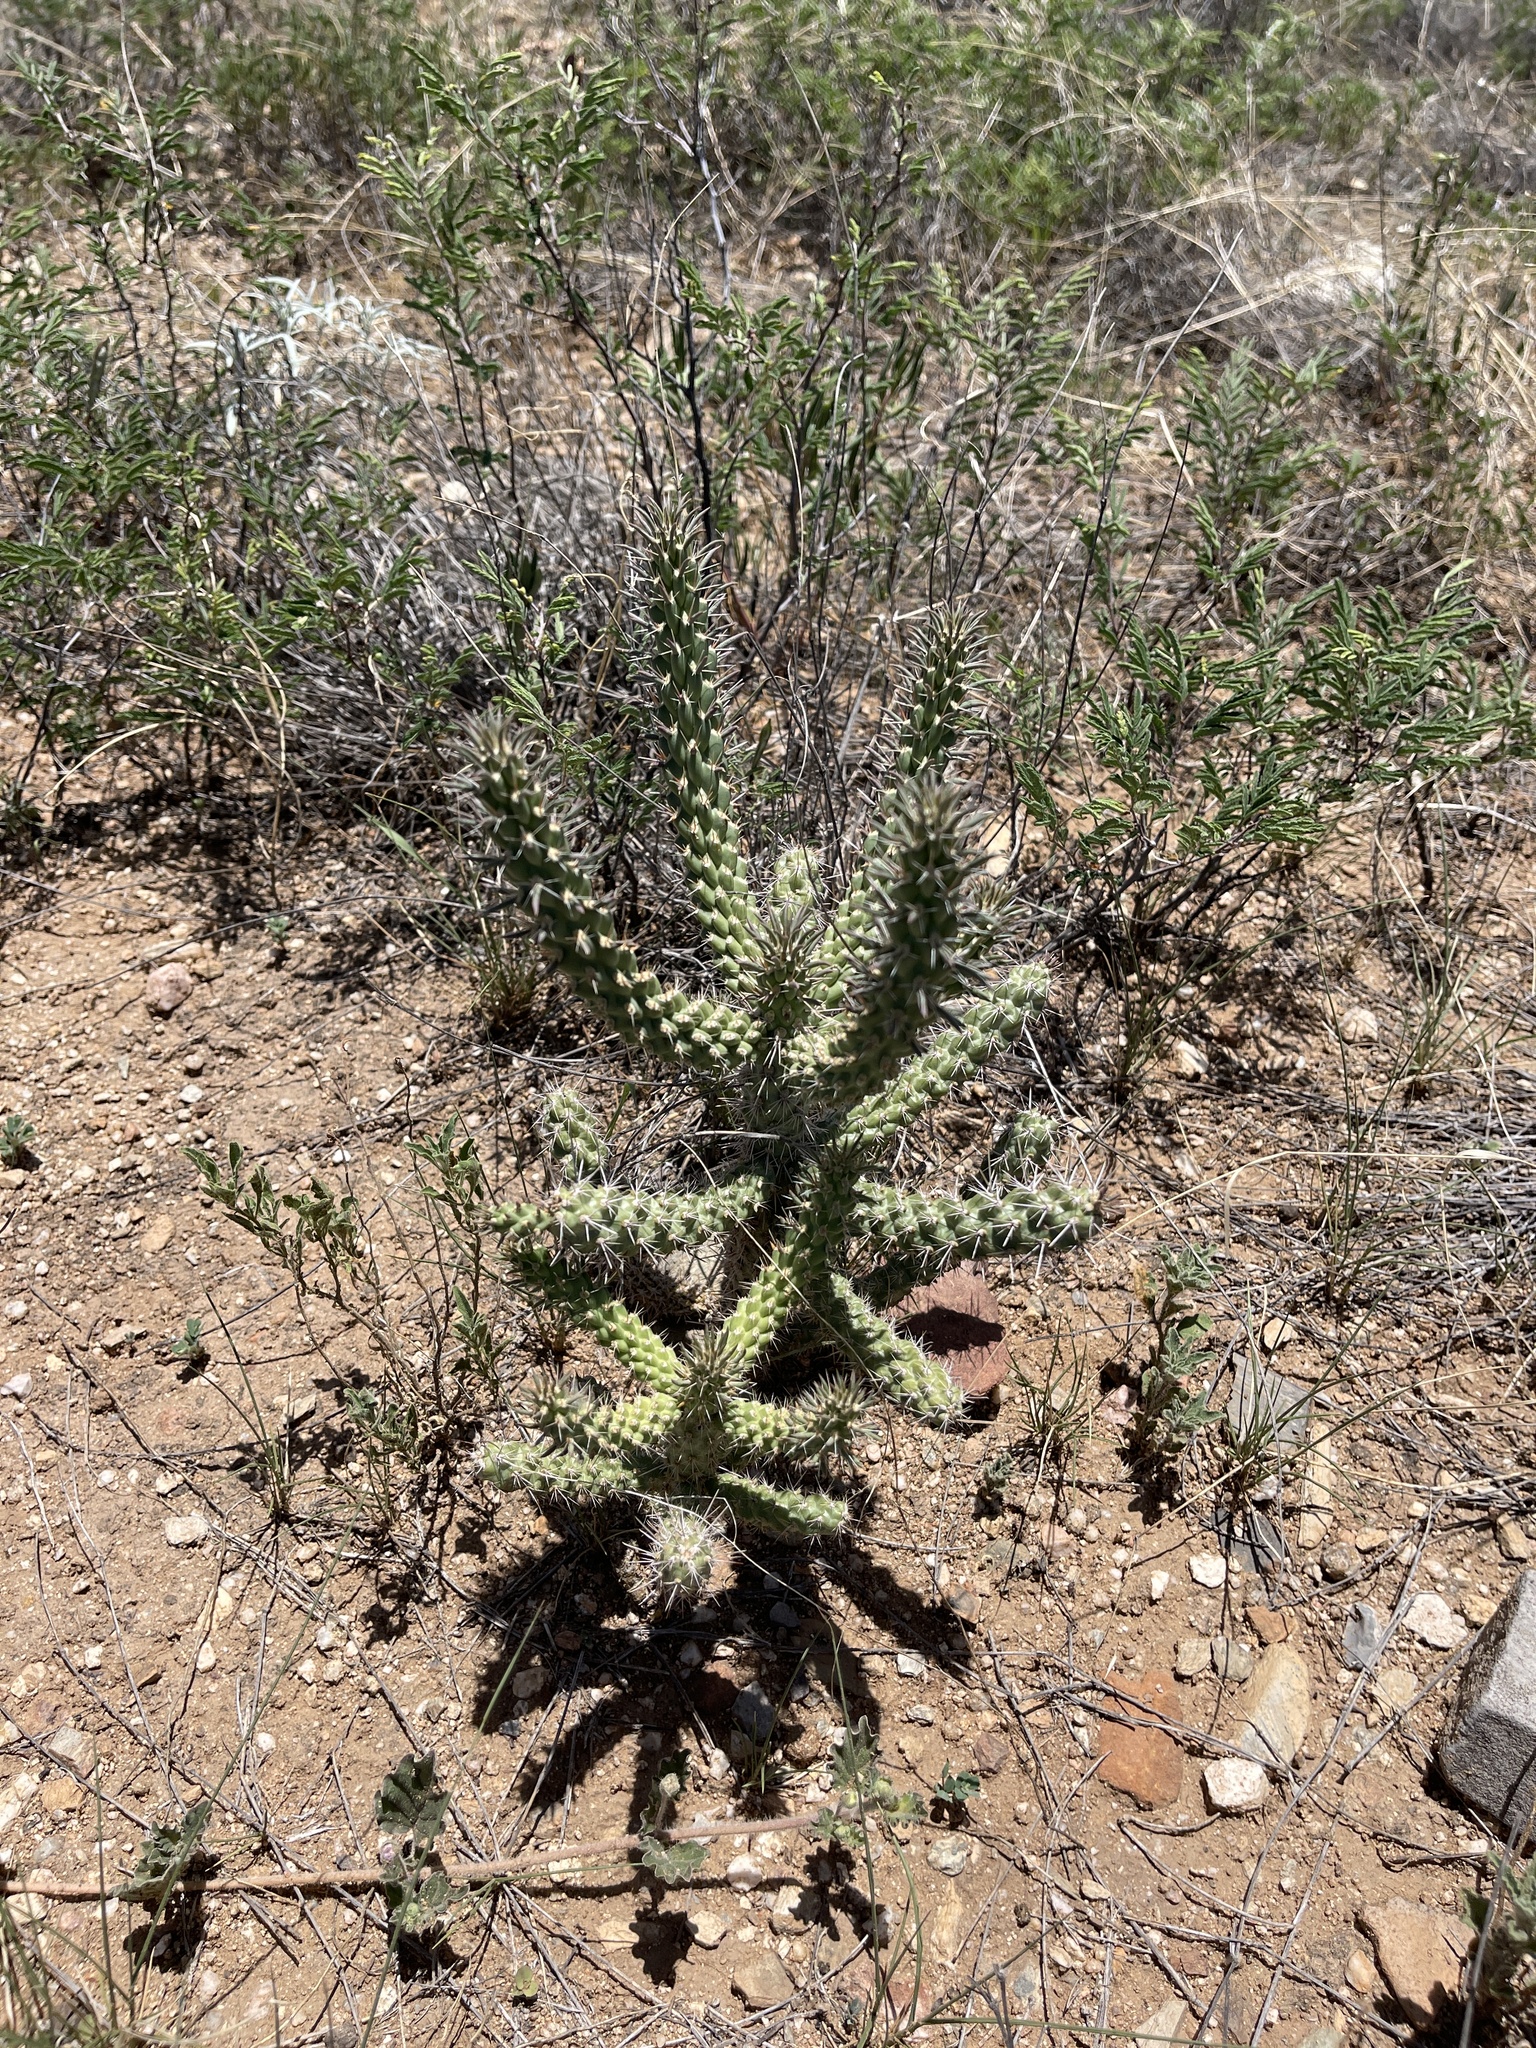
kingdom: Plantae
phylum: Tracheophyta
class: Magnoliopsida
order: Caryophyllales
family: Cactaceae
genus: Cylindropuntia
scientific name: Cylindropuntia imbricata
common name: Candelabrum cactus
